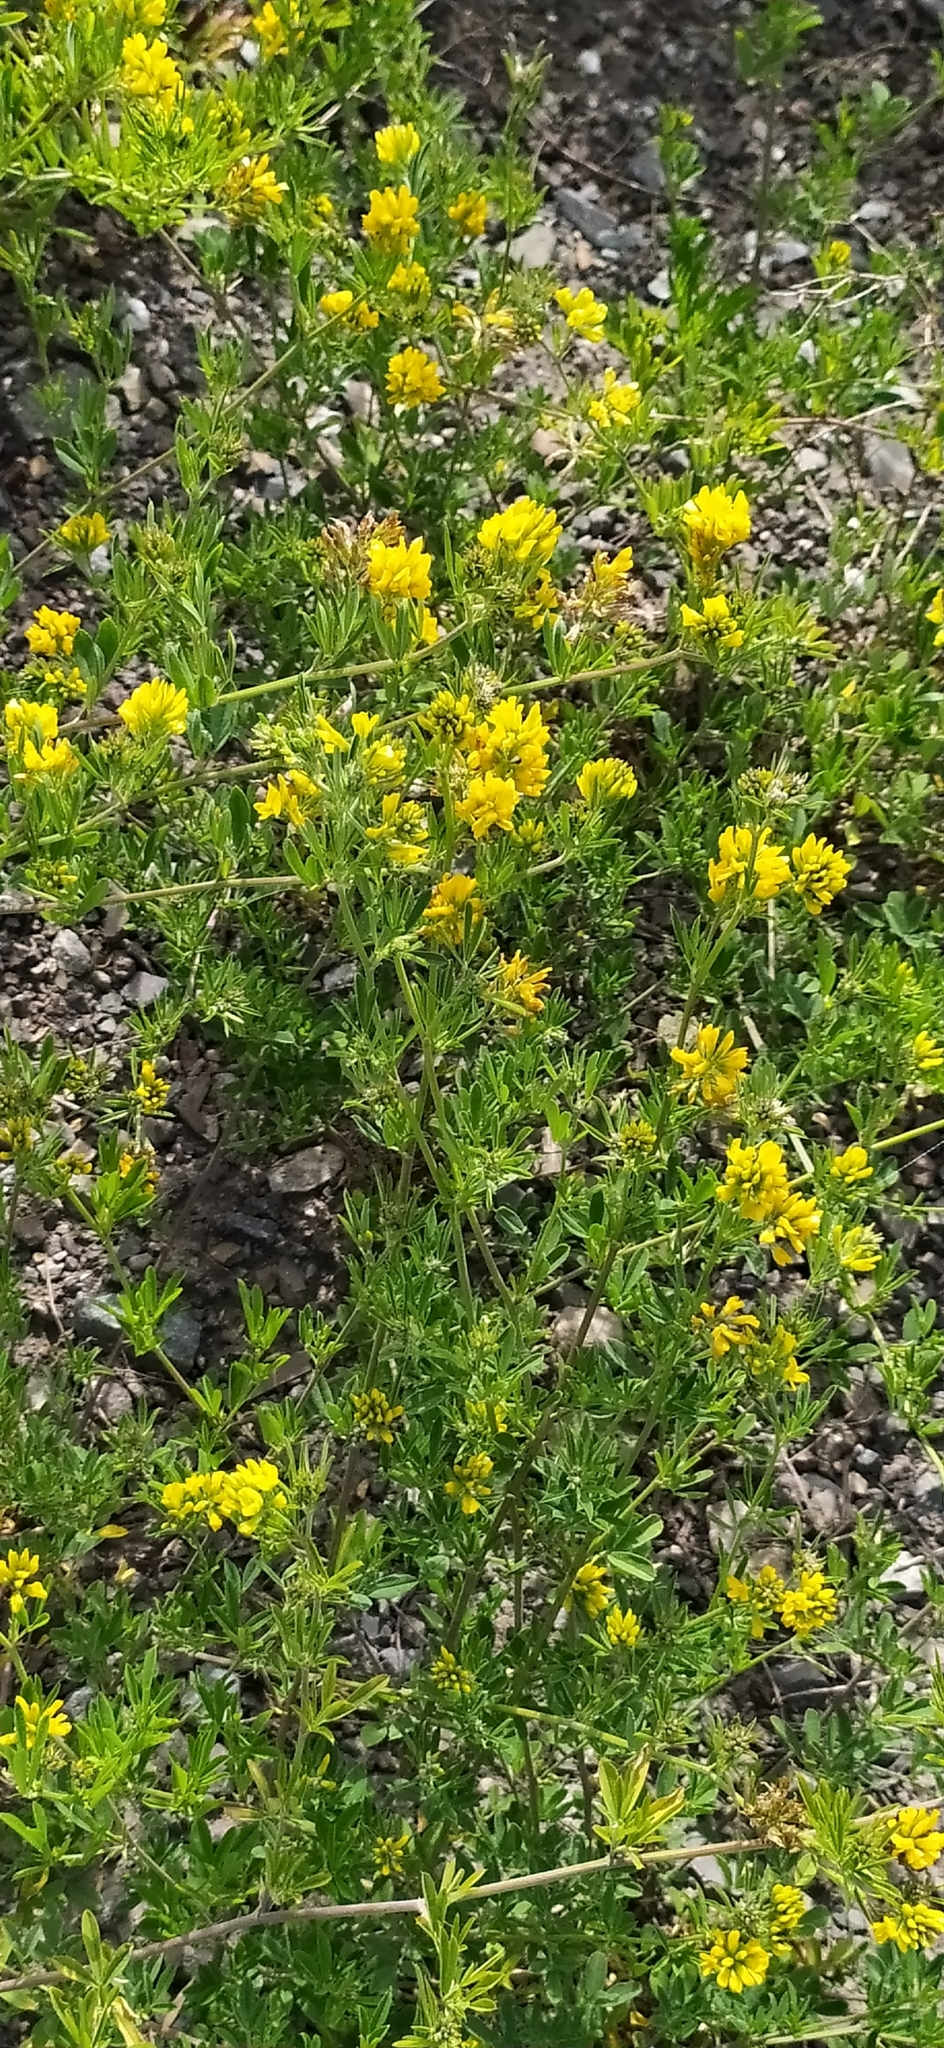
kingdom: Plantae
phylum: Tracheophyta
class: Magnoliopsida
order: Fabales
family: Fabaceae
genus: Medicago
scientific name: Medicago falcata
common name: Sickle medick
